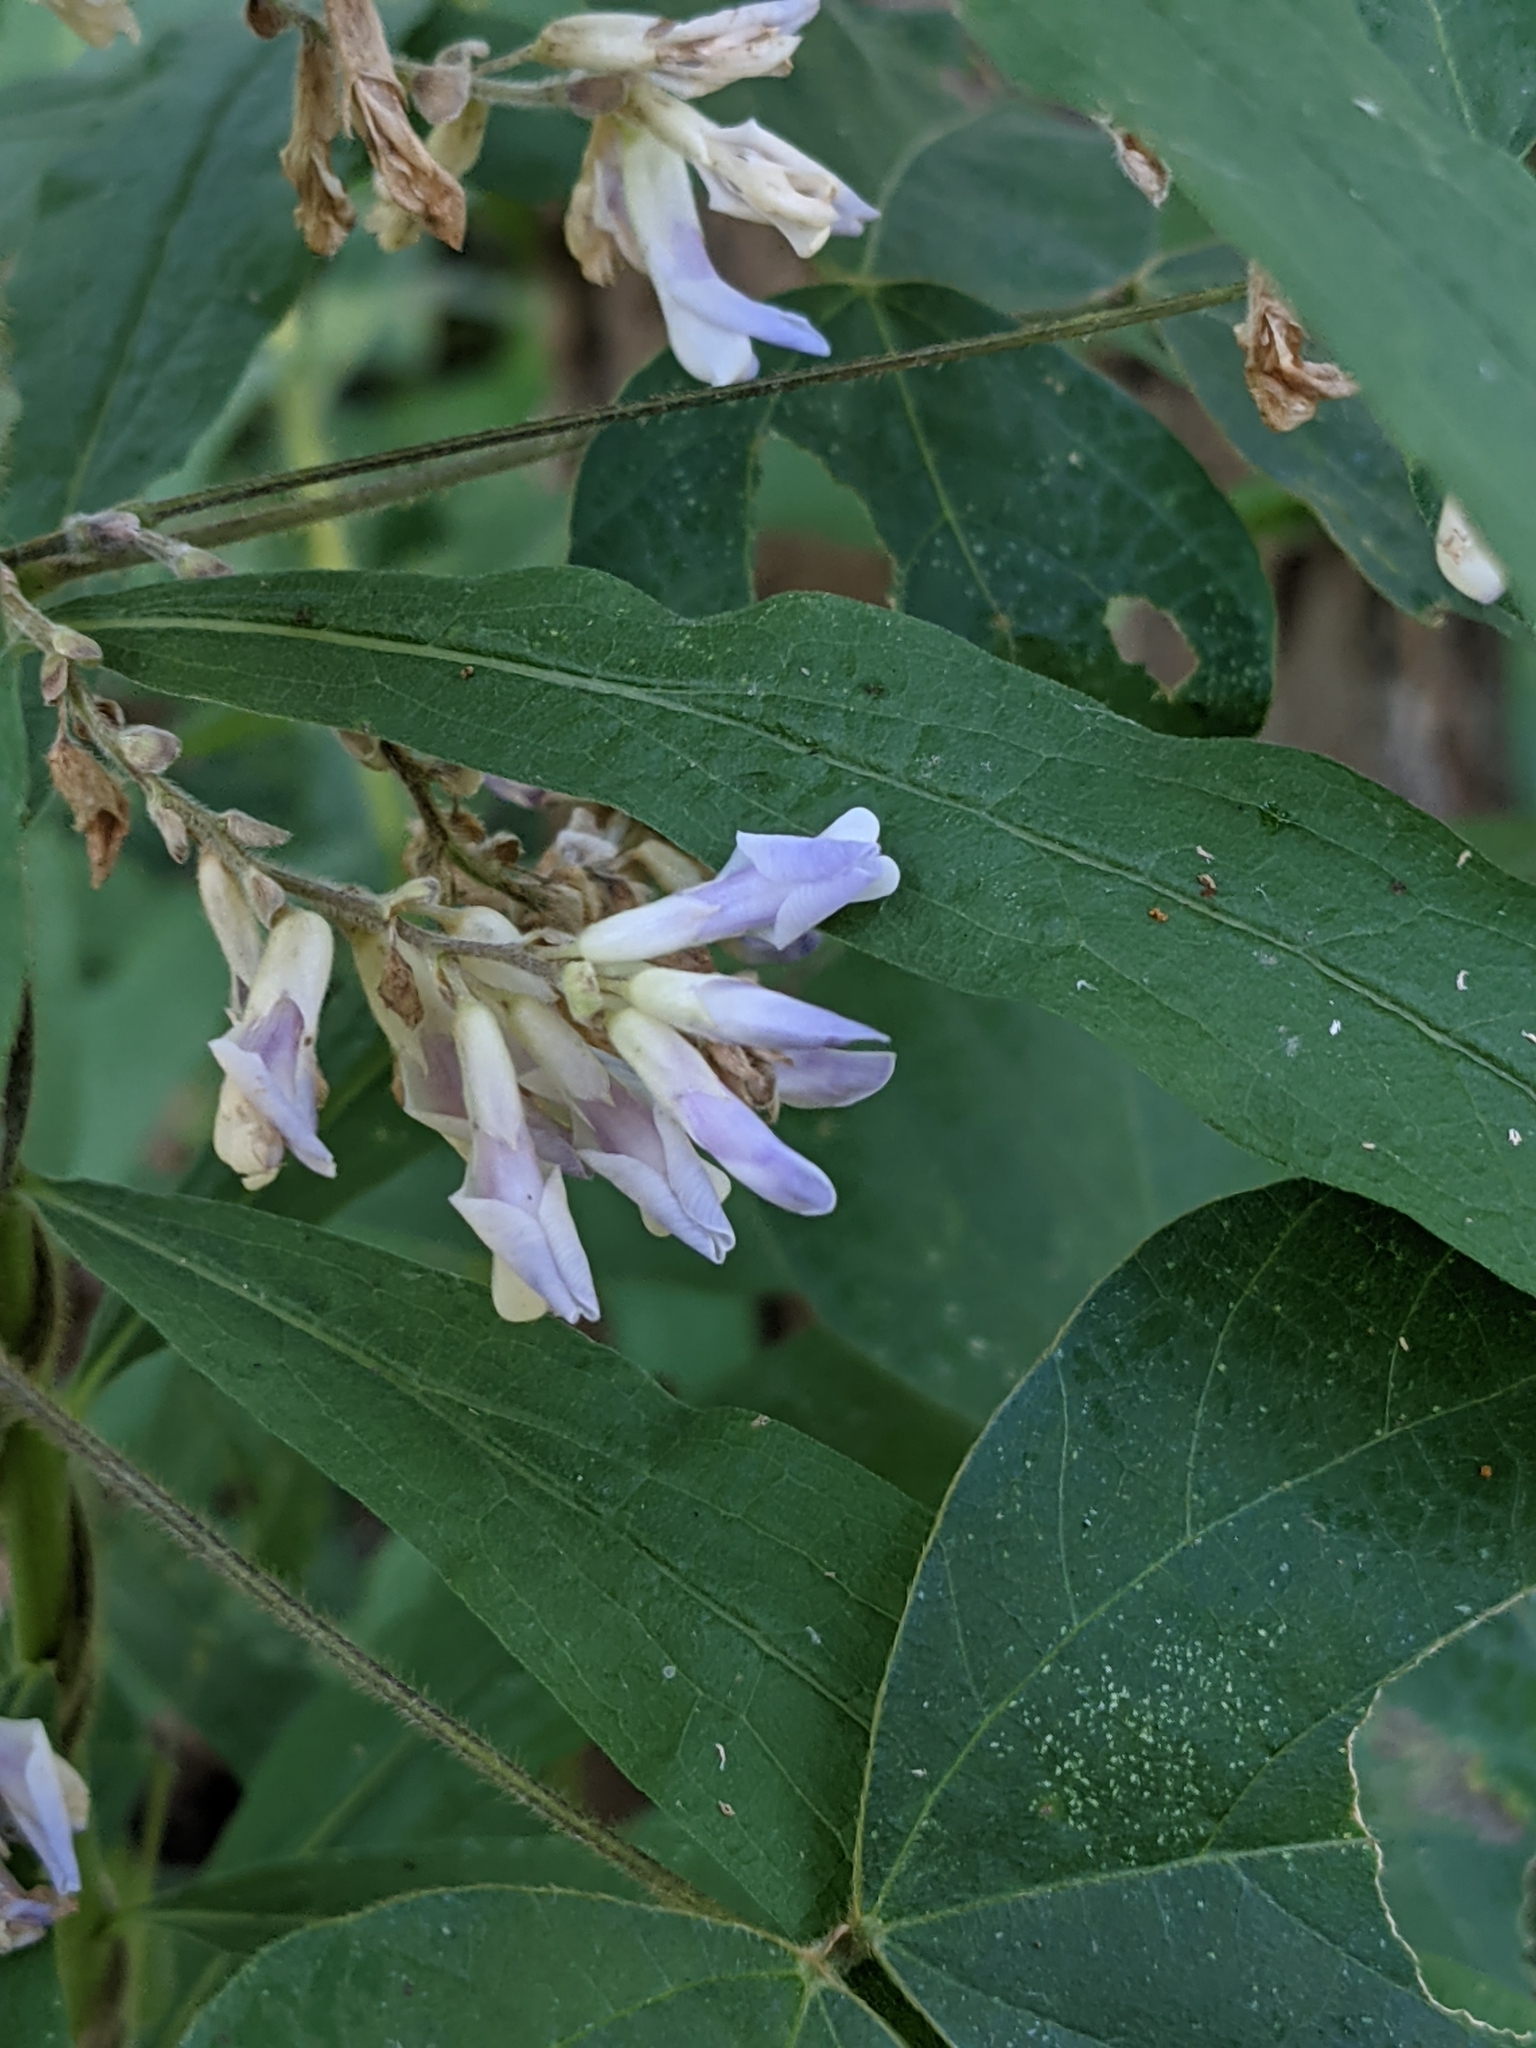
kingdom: Plantae
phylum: Tracheophyta
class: Magnoliopsida
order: Fabales
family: Fabaceae
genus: Amphicarpaea
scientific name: Amphicarpaea bracteata
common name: American hog peanut
